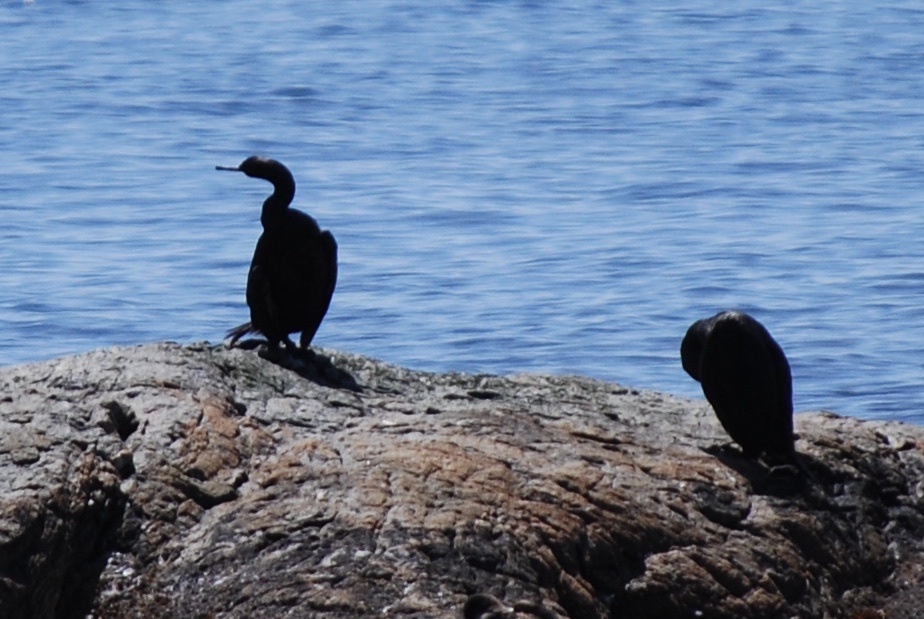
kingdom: Animalia
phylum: Chordata
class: Aves
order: Suliformes
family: Phalacrocoracidae
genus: Phalacrocorax
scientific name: Phalacrocorax pelagicus
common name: Pelagic cormorant
